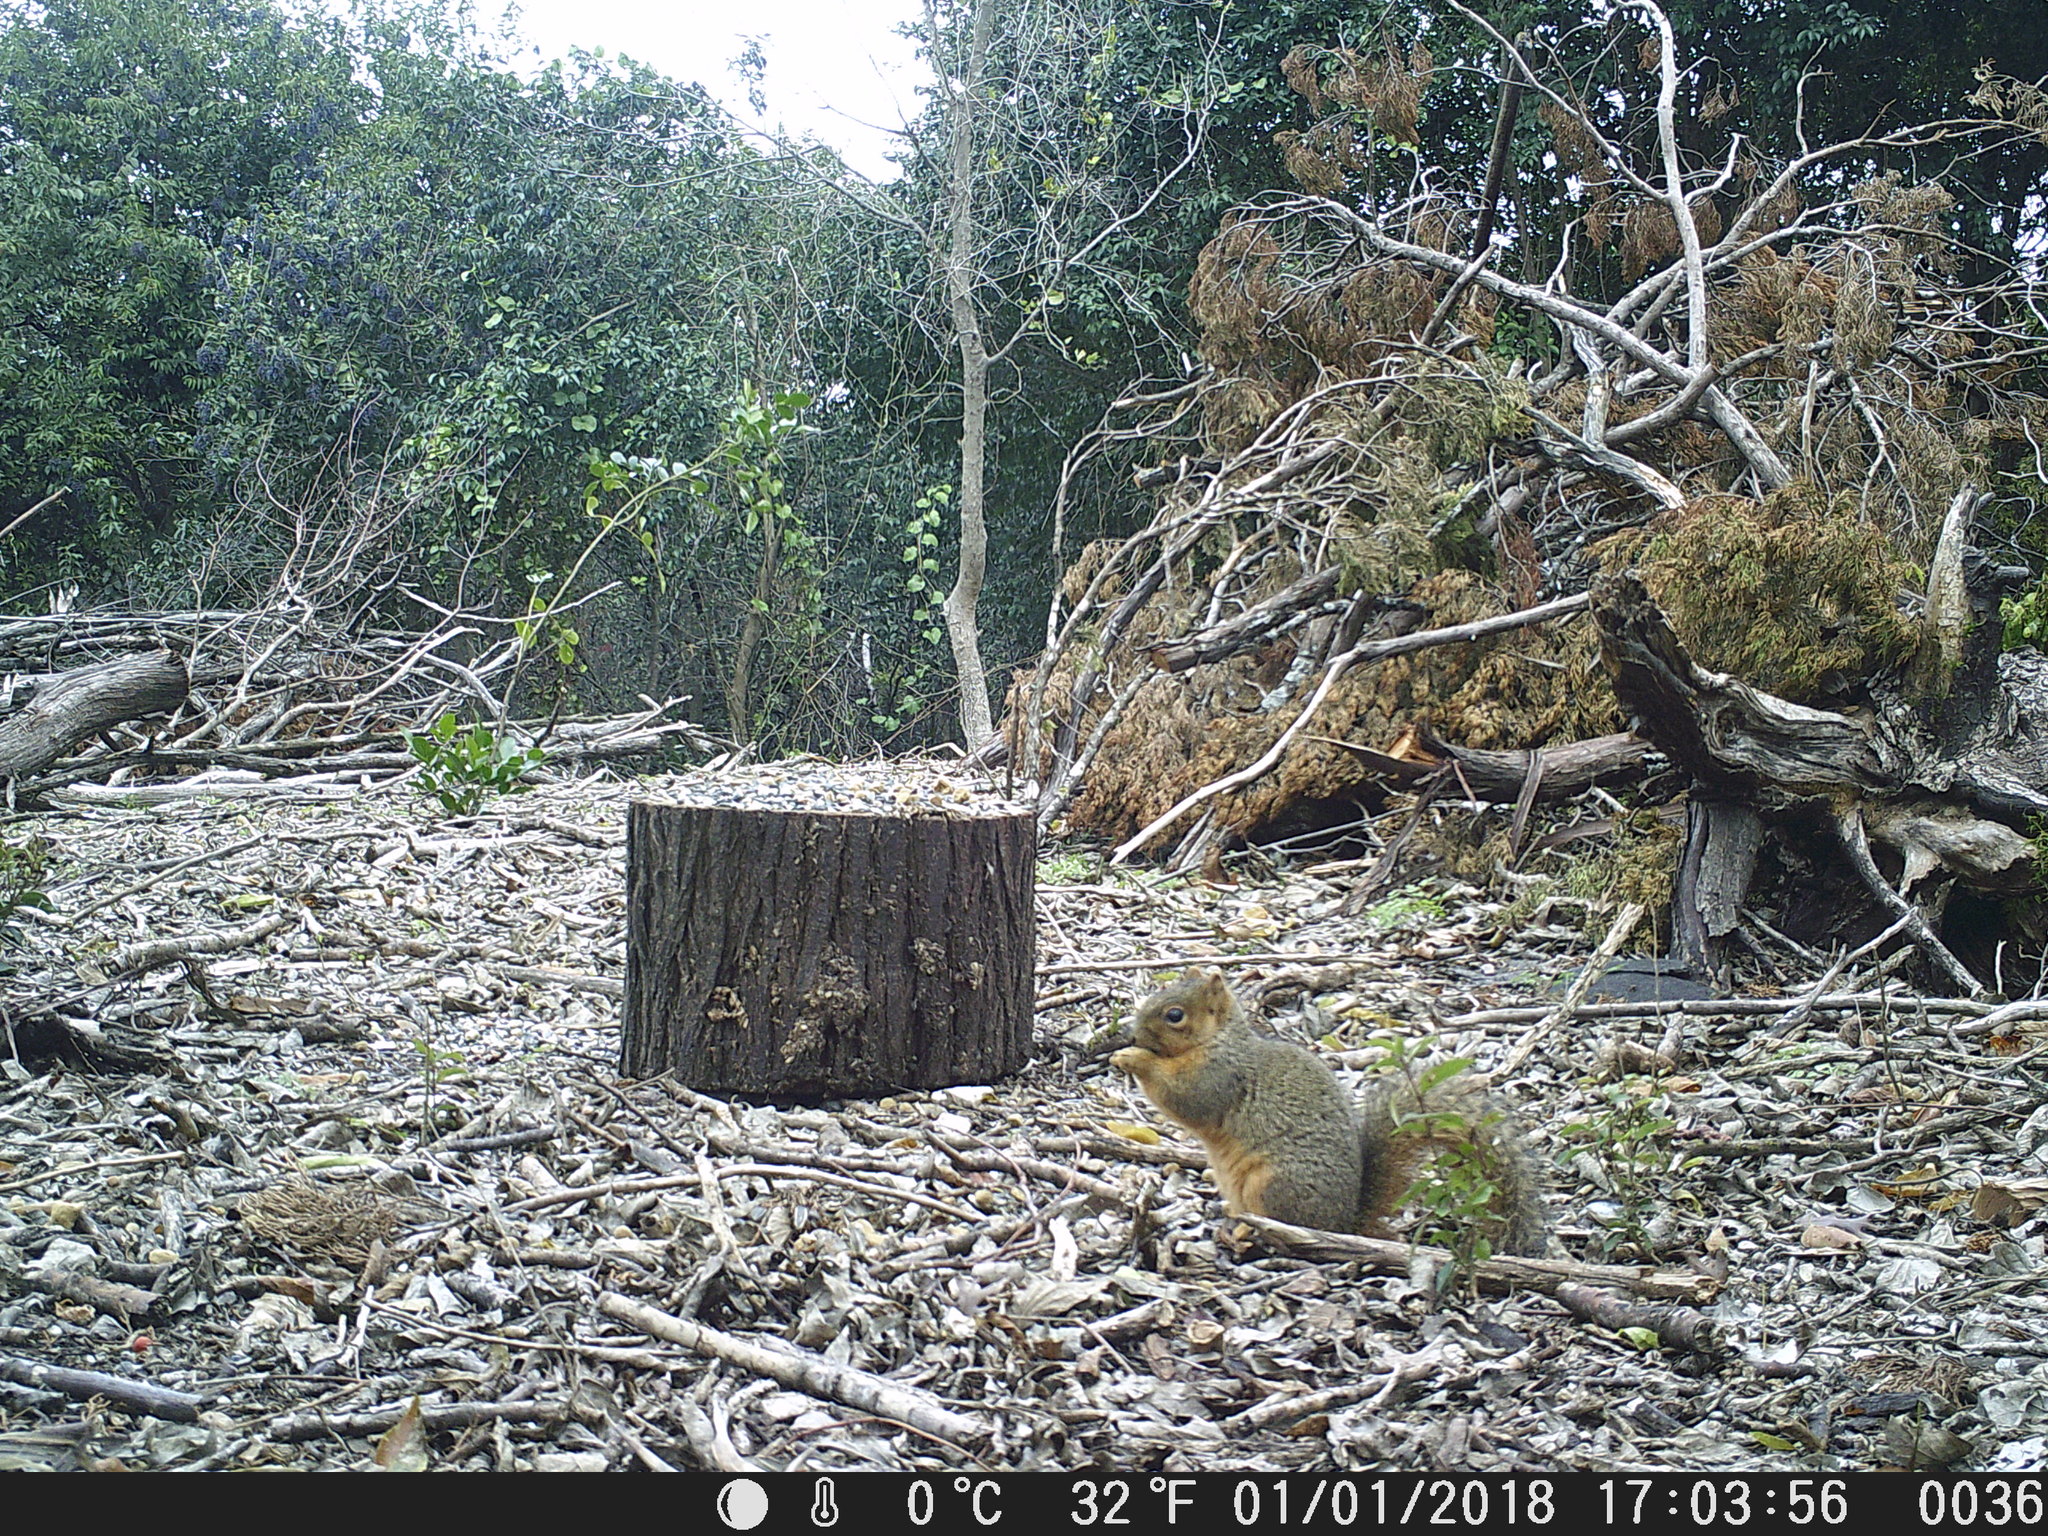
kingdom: Animalia
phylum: Chordata
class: Mammalia
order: Rodentia
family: Sciuridae
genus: Sciurus
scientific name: Sciurus niger
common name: Fox squirrel
